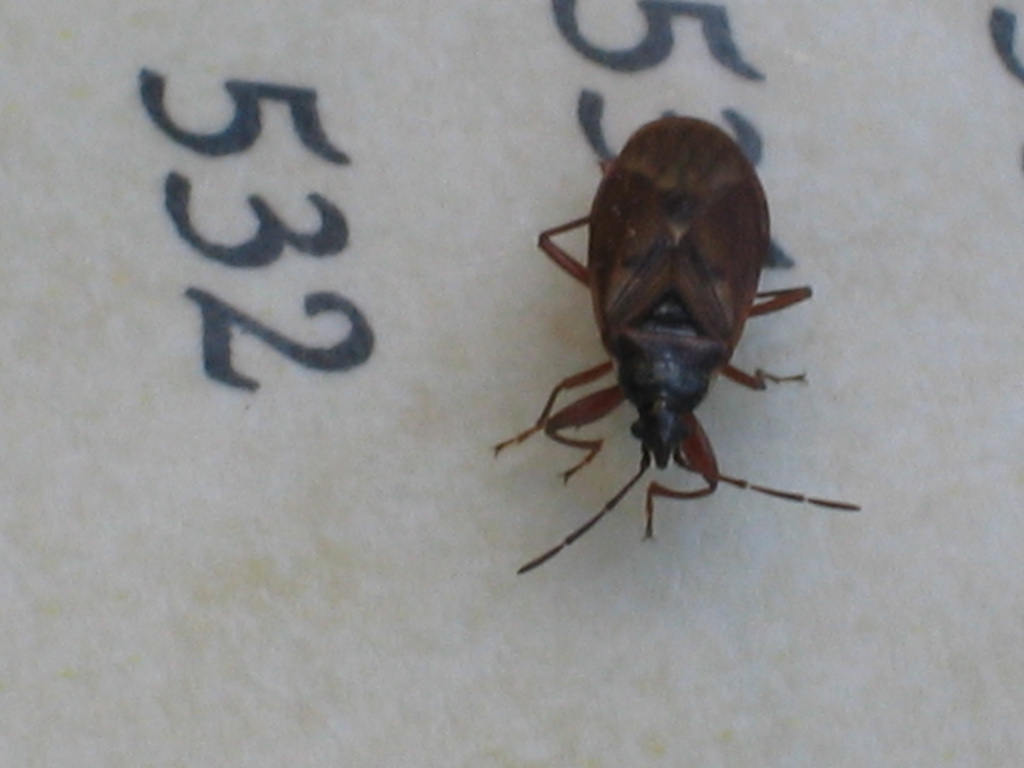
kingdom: Animalia
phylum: Arthropoda
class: Insecta
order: Hemiptera
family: Rhyparochromidae
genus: Gastrodes
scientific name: Gastrodes abietum
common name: Spruce cone bug
